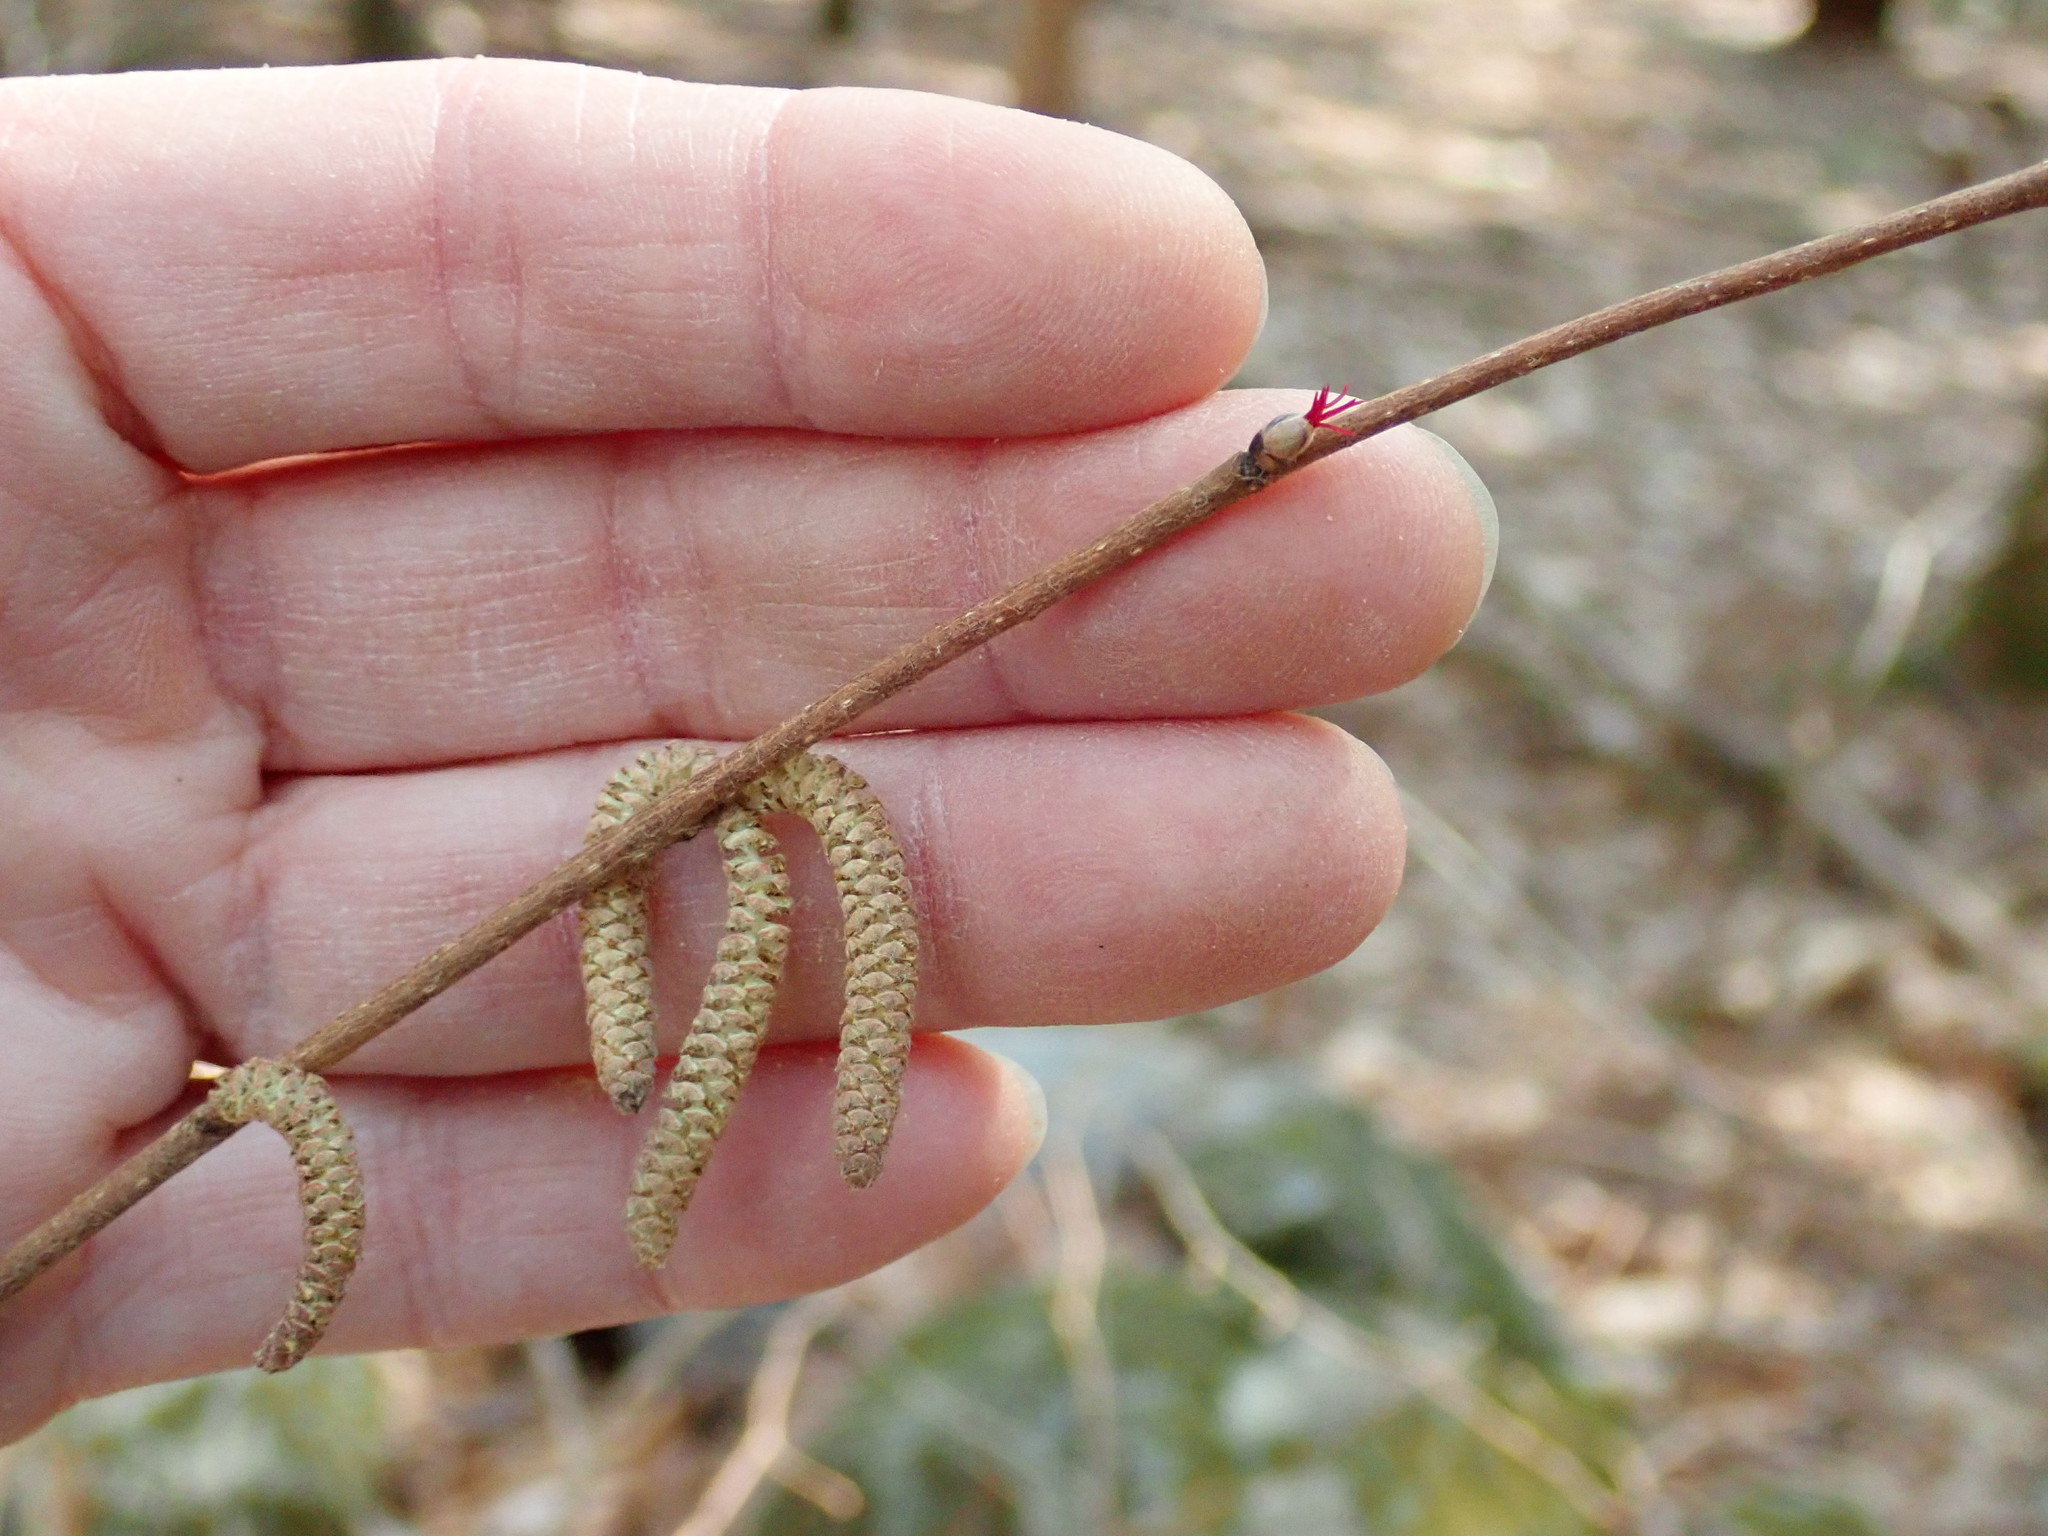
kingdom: Plantae
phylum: Tracheophyta
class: Magnoliopsida
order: Fagales
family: Betulaceae
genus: Corylus
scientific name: Corylus cornuta
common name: Beaked hazel
